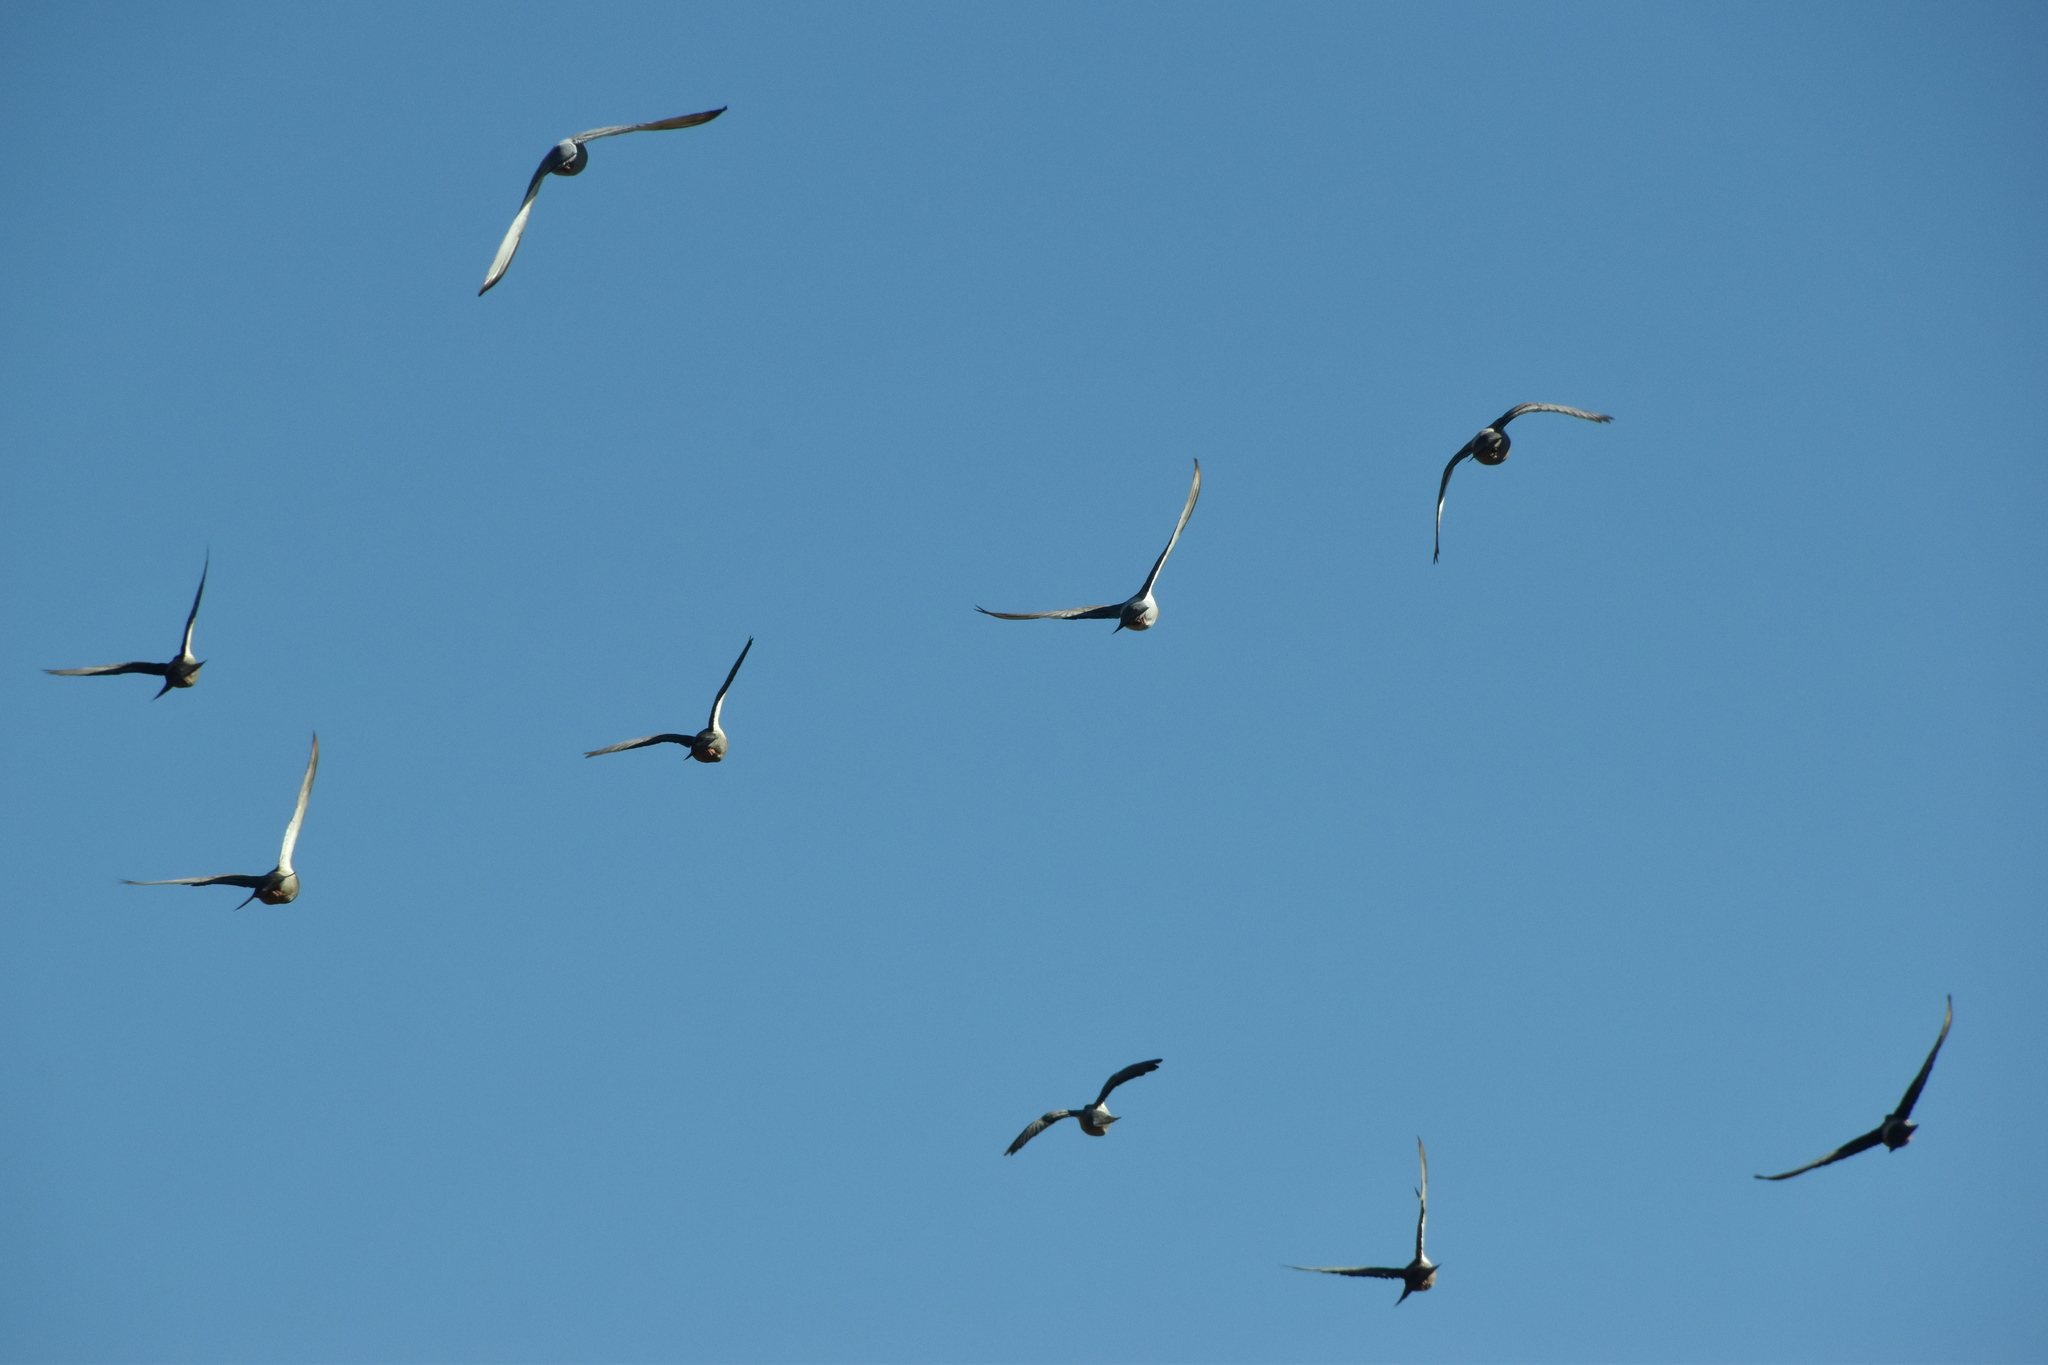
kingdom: Animalia
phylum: Chordata
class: Aves
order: Columbiformes
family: Columbidae
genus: Columba
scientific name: Columba livia
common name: Rock pigeon
